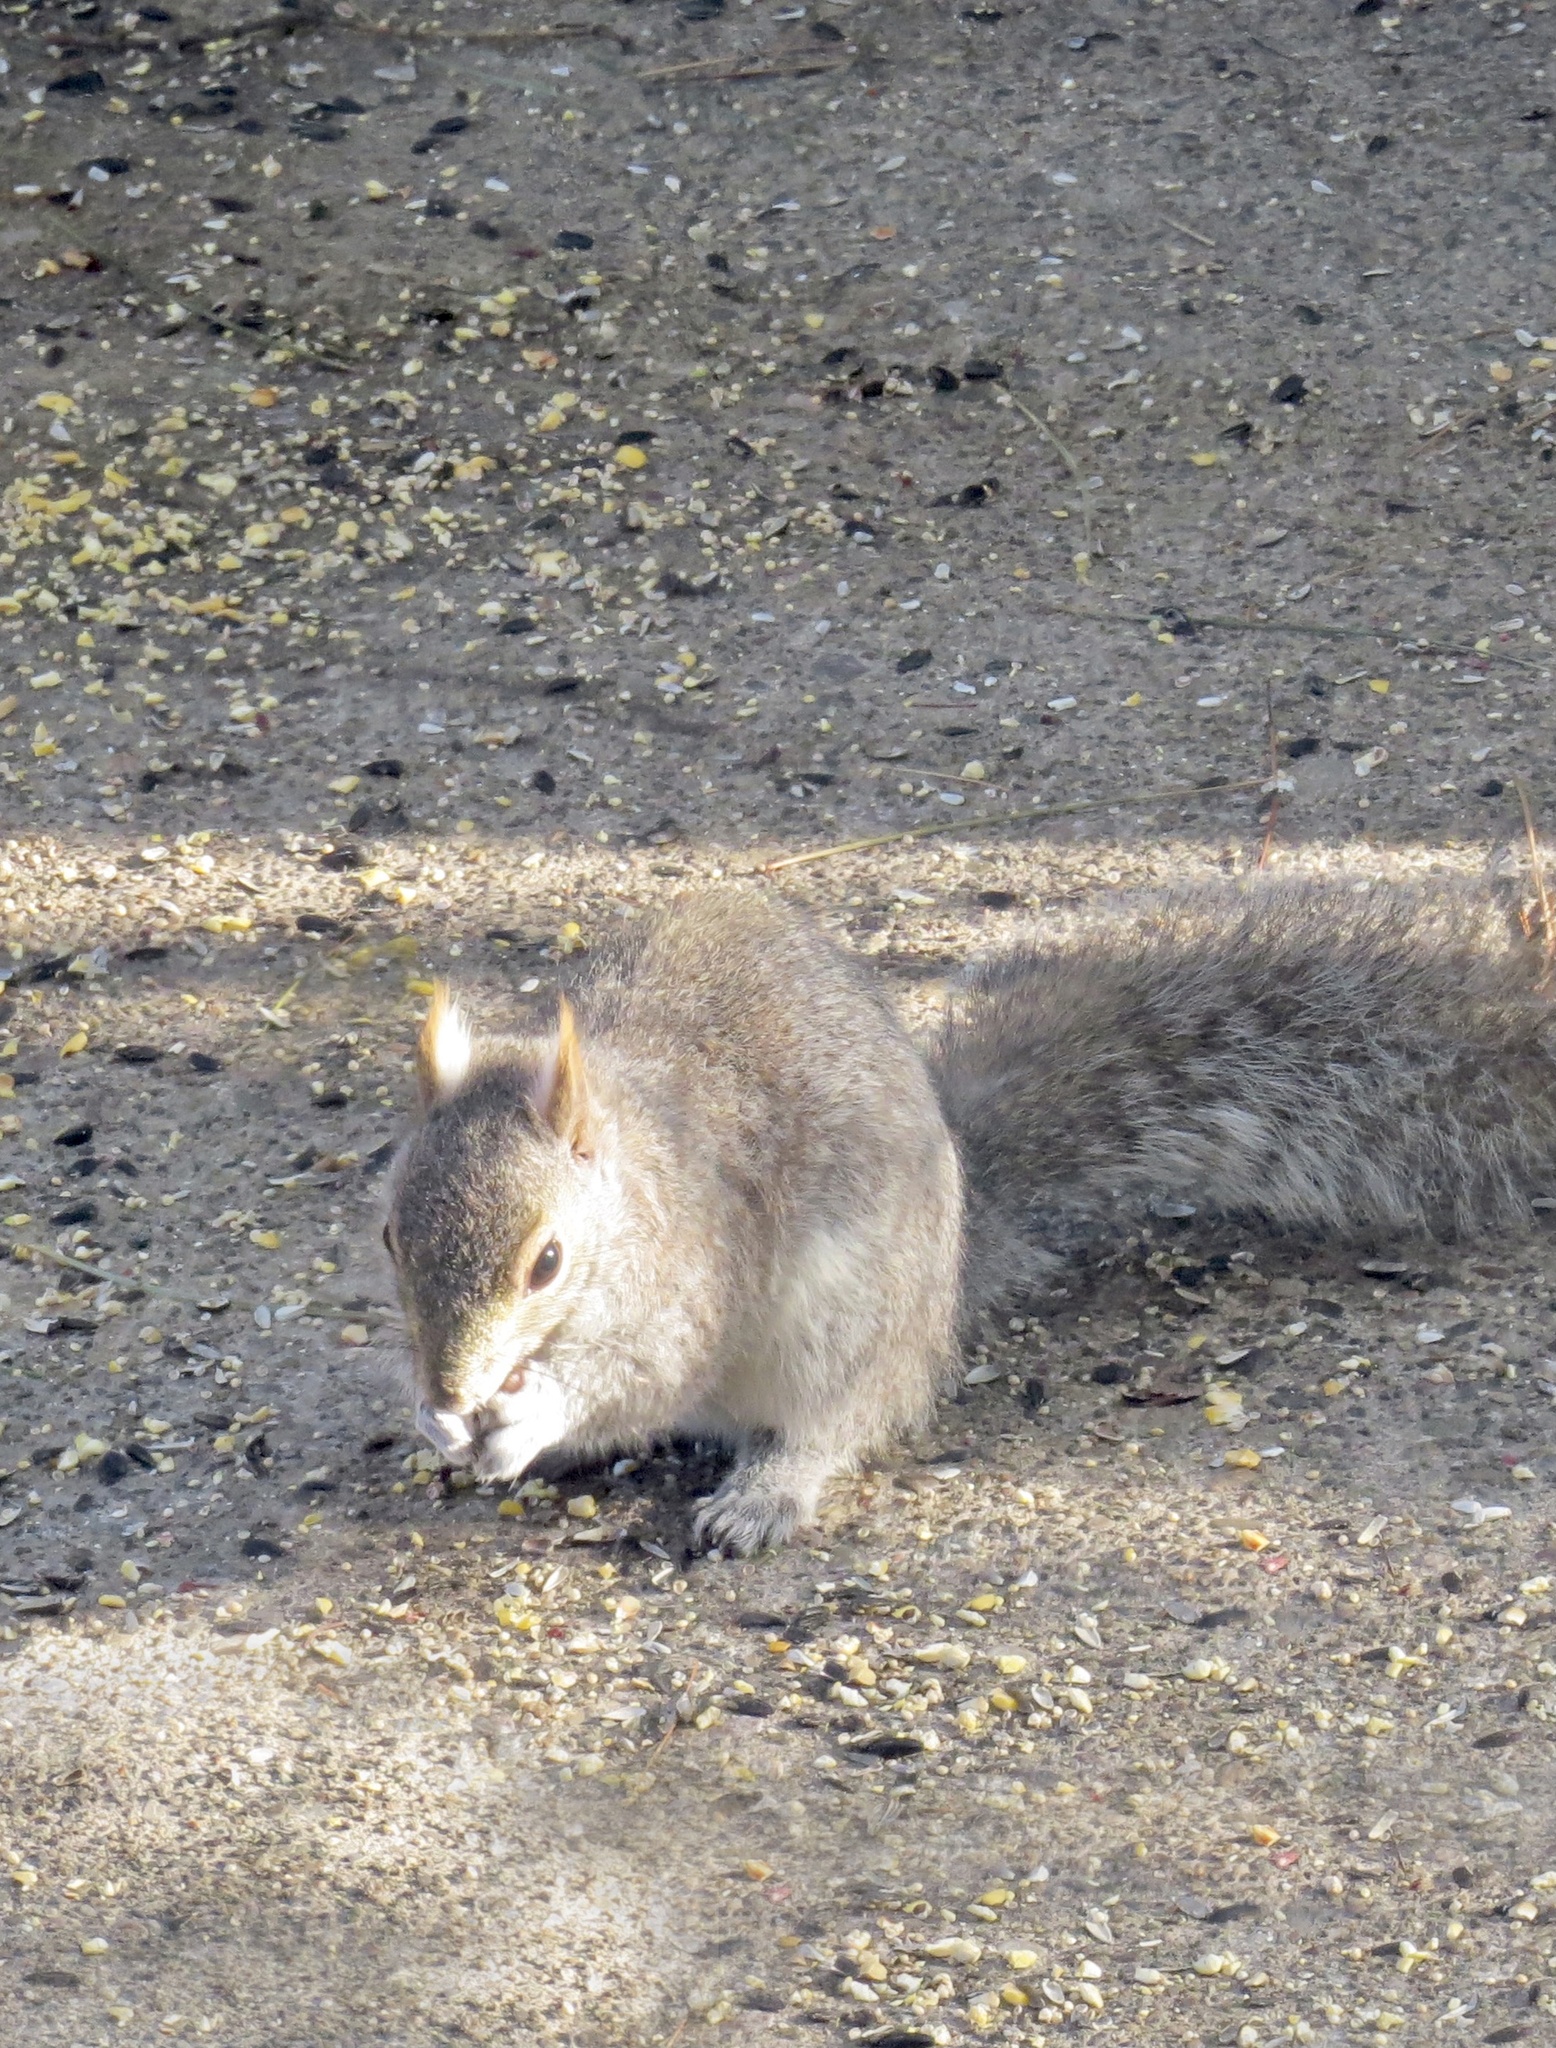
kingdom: Animalia
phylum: Chordata
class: Mammalia
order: Rodentia
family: Sciuridae
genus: Sciurus
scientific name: Sciurus carolinensis
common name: Eastern gray squirrel
